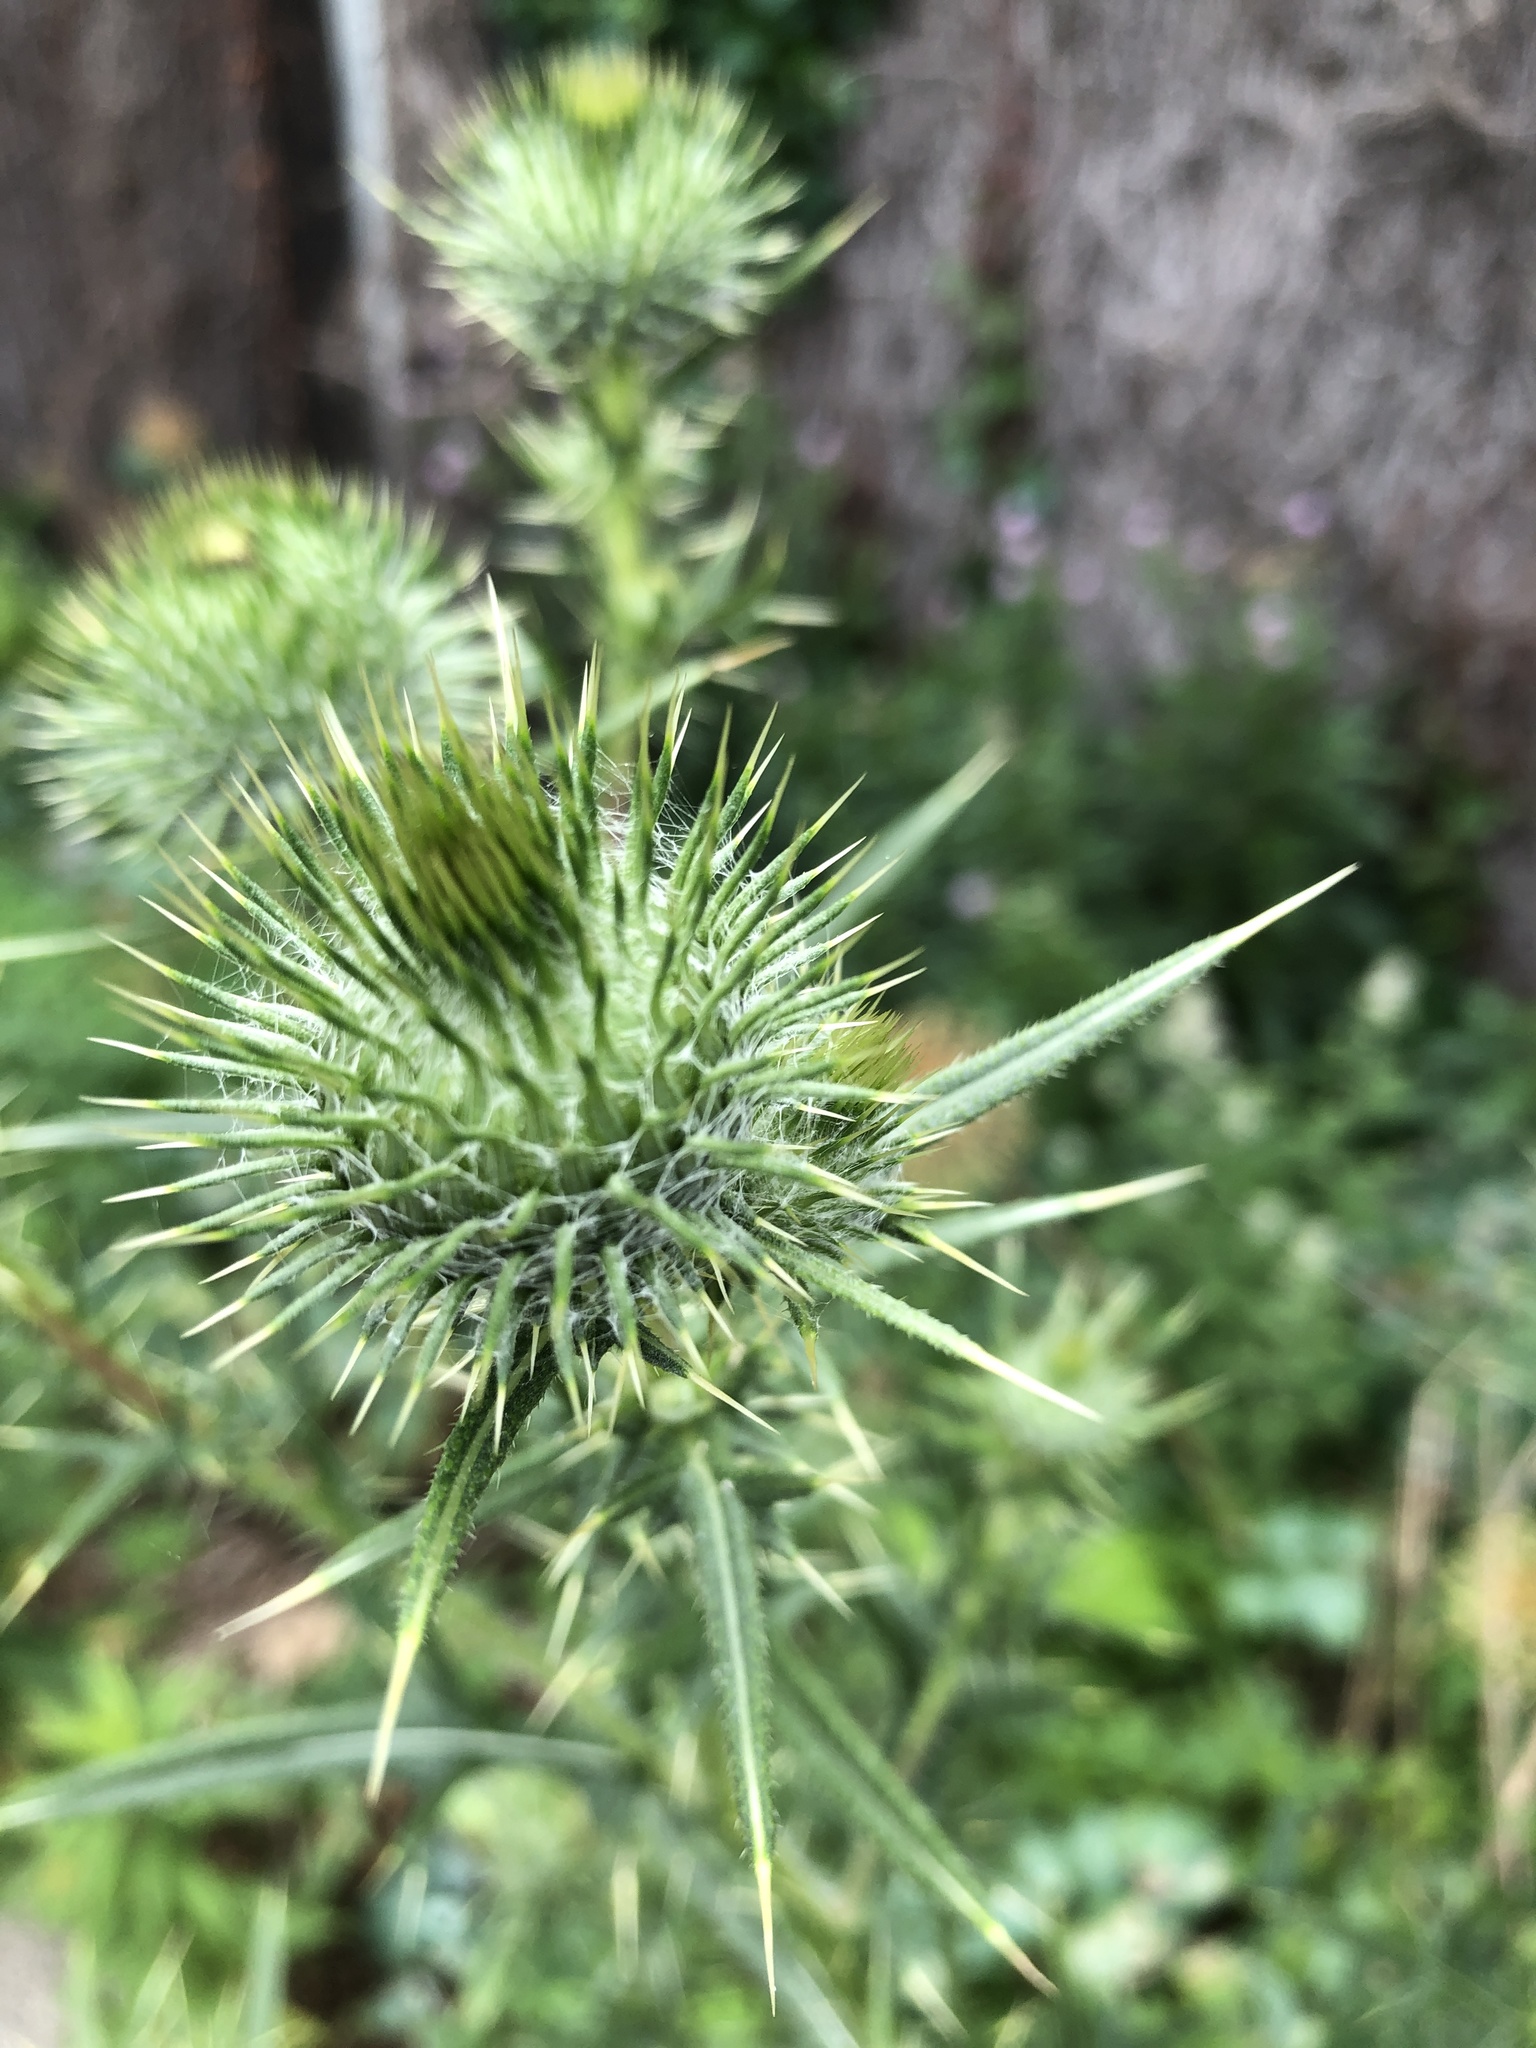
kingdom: Plantae
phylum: Tracheophyta
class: Magnoliopsida
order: Asterales
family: Asteraceae
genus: Cirsium
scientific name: Cirsium vulgare
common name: Bull thistle
